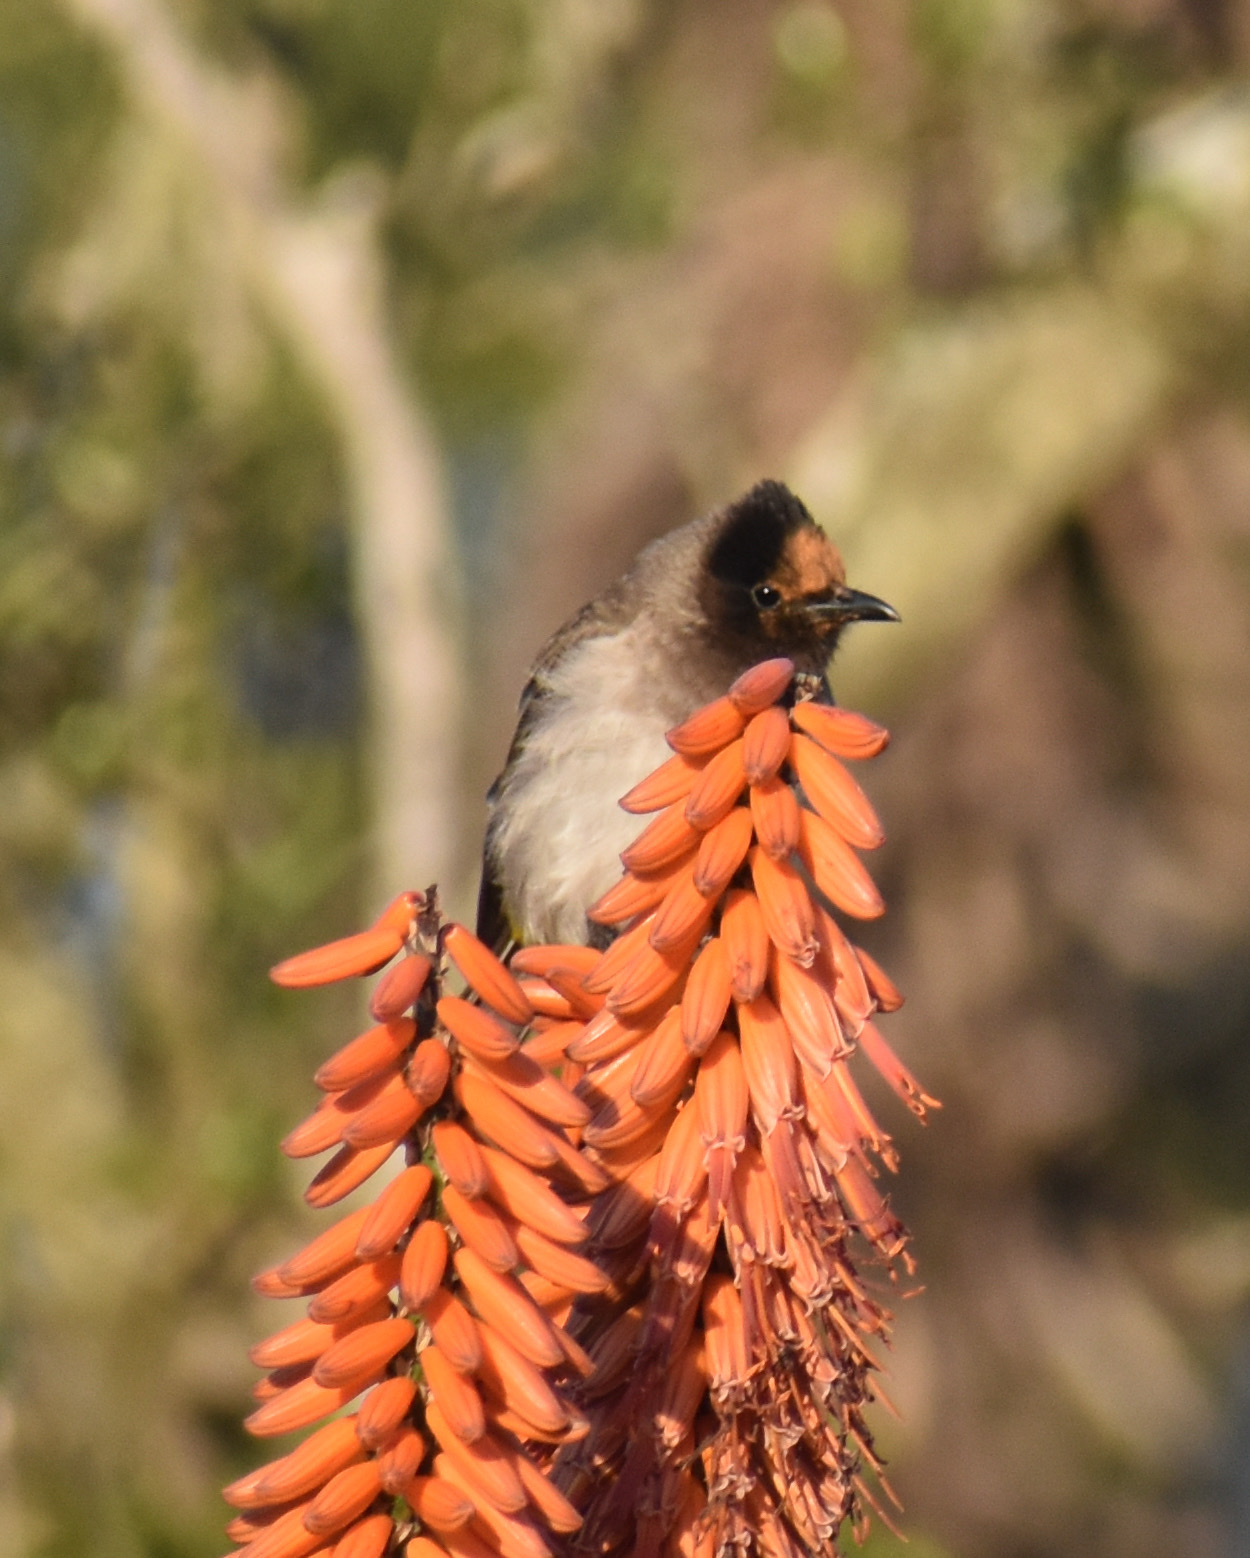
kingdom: Animalia
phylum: Chordata
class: Aves
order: Passeriformes
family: Pycnonotidae
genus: Pycnonotus
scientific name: Pycnonotus barbatus
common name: Common bulbul
